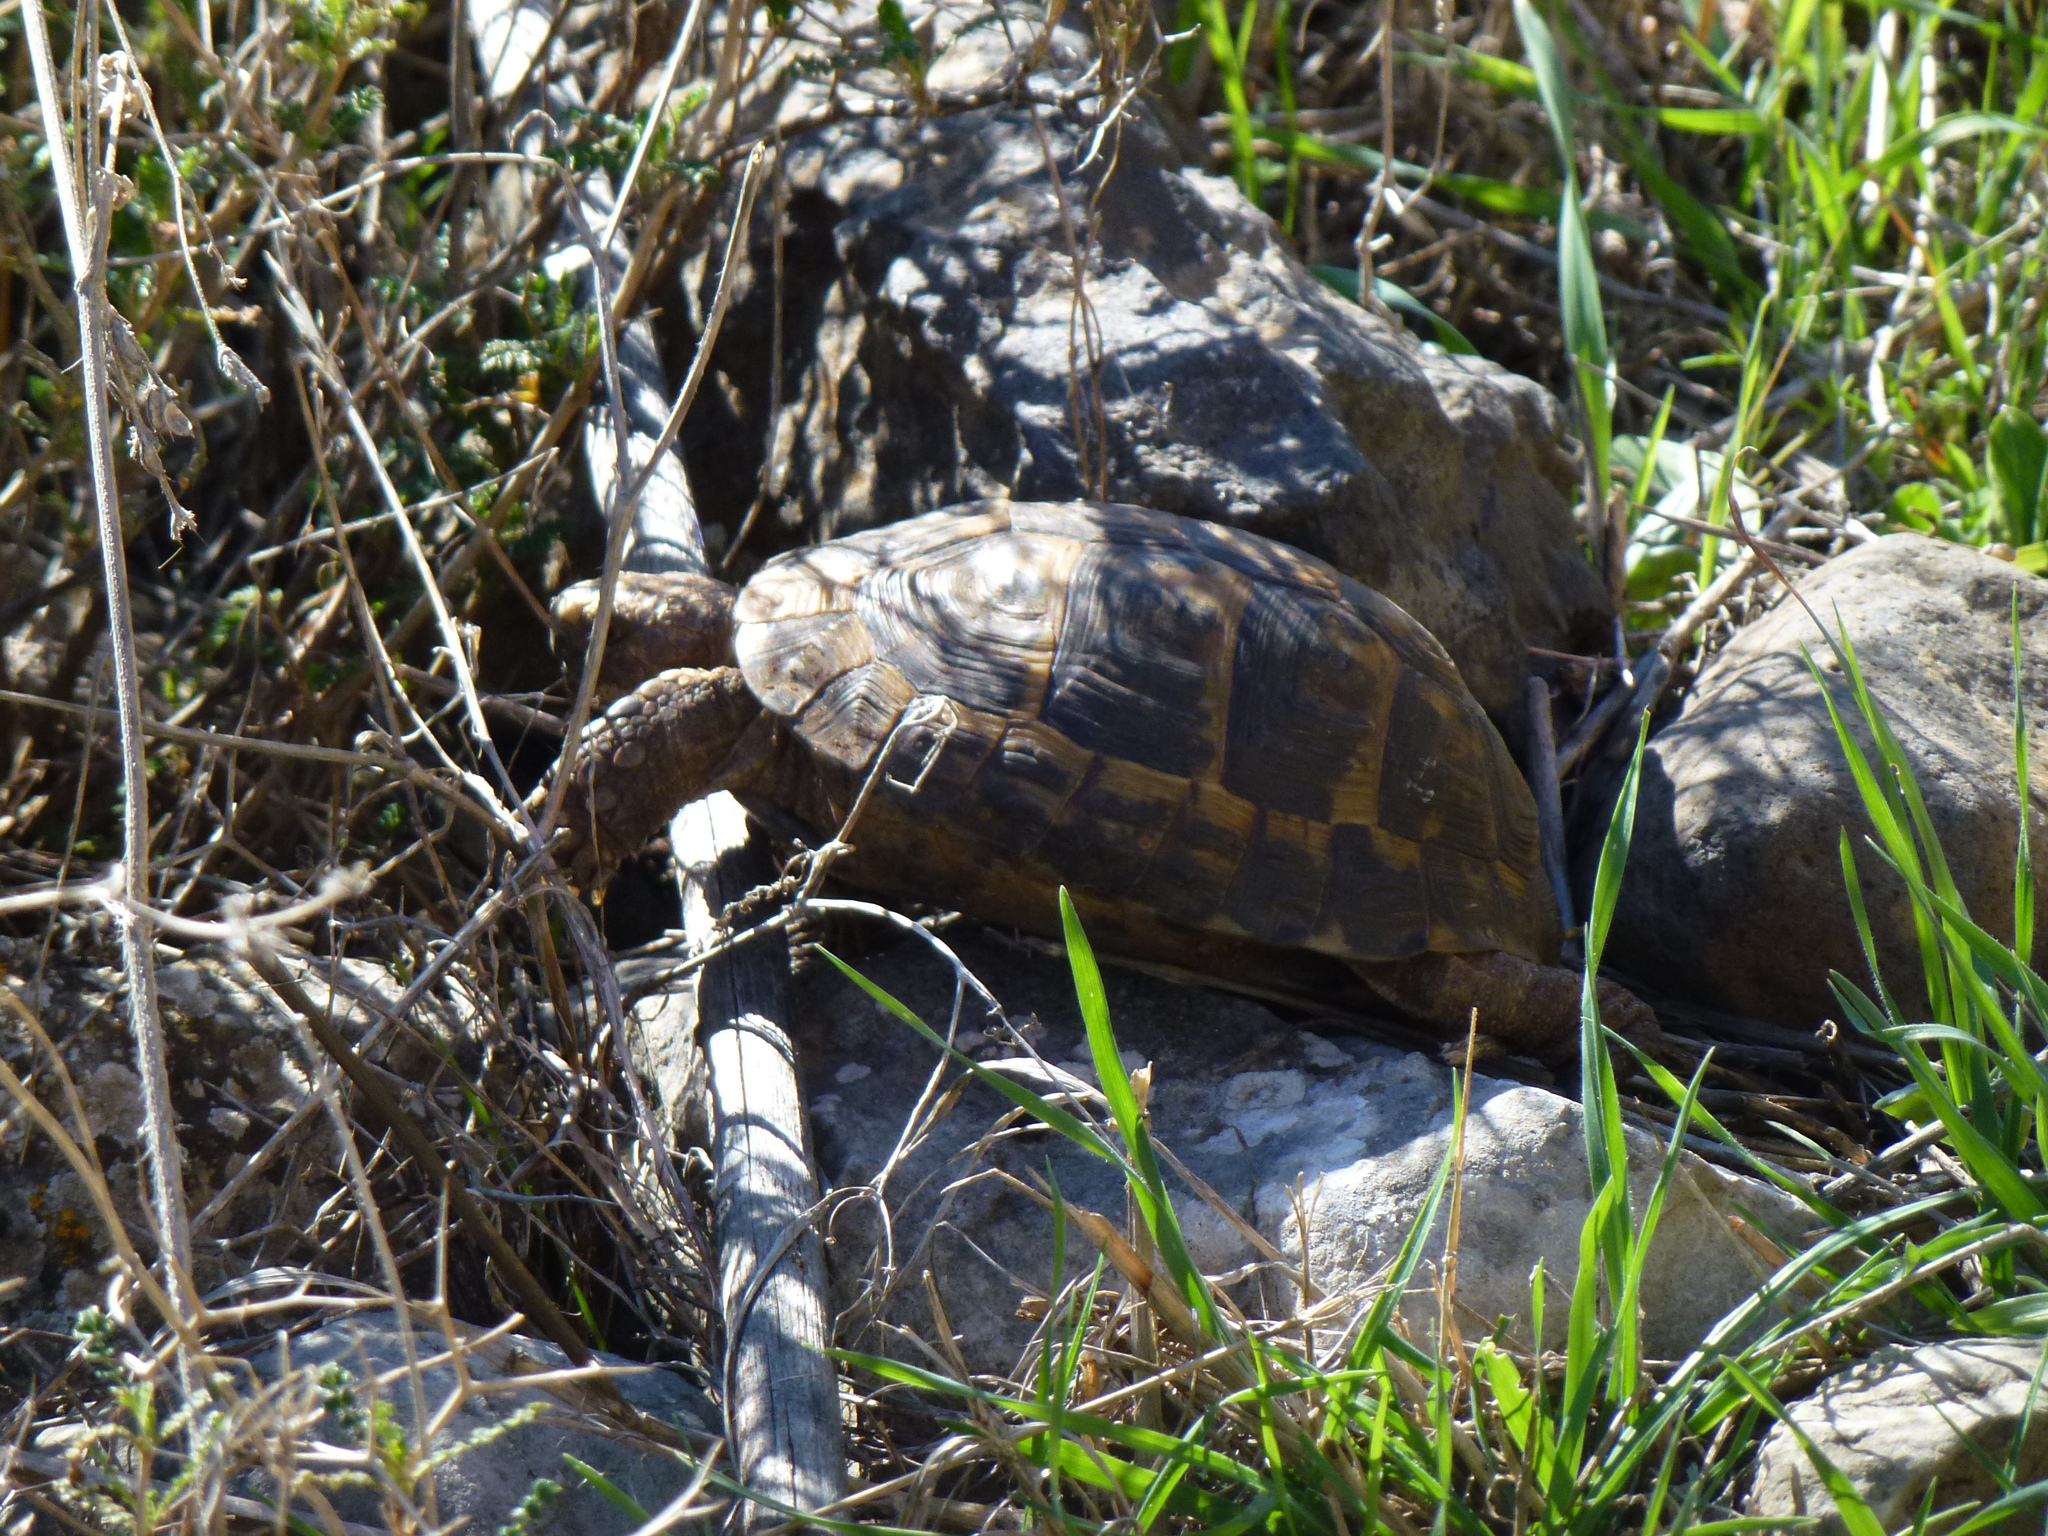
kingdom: Animalia
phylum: Chordata
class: Testudines
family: Testudinidae
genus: Testudo
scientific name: Testudo graeca
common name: Common tortoise
